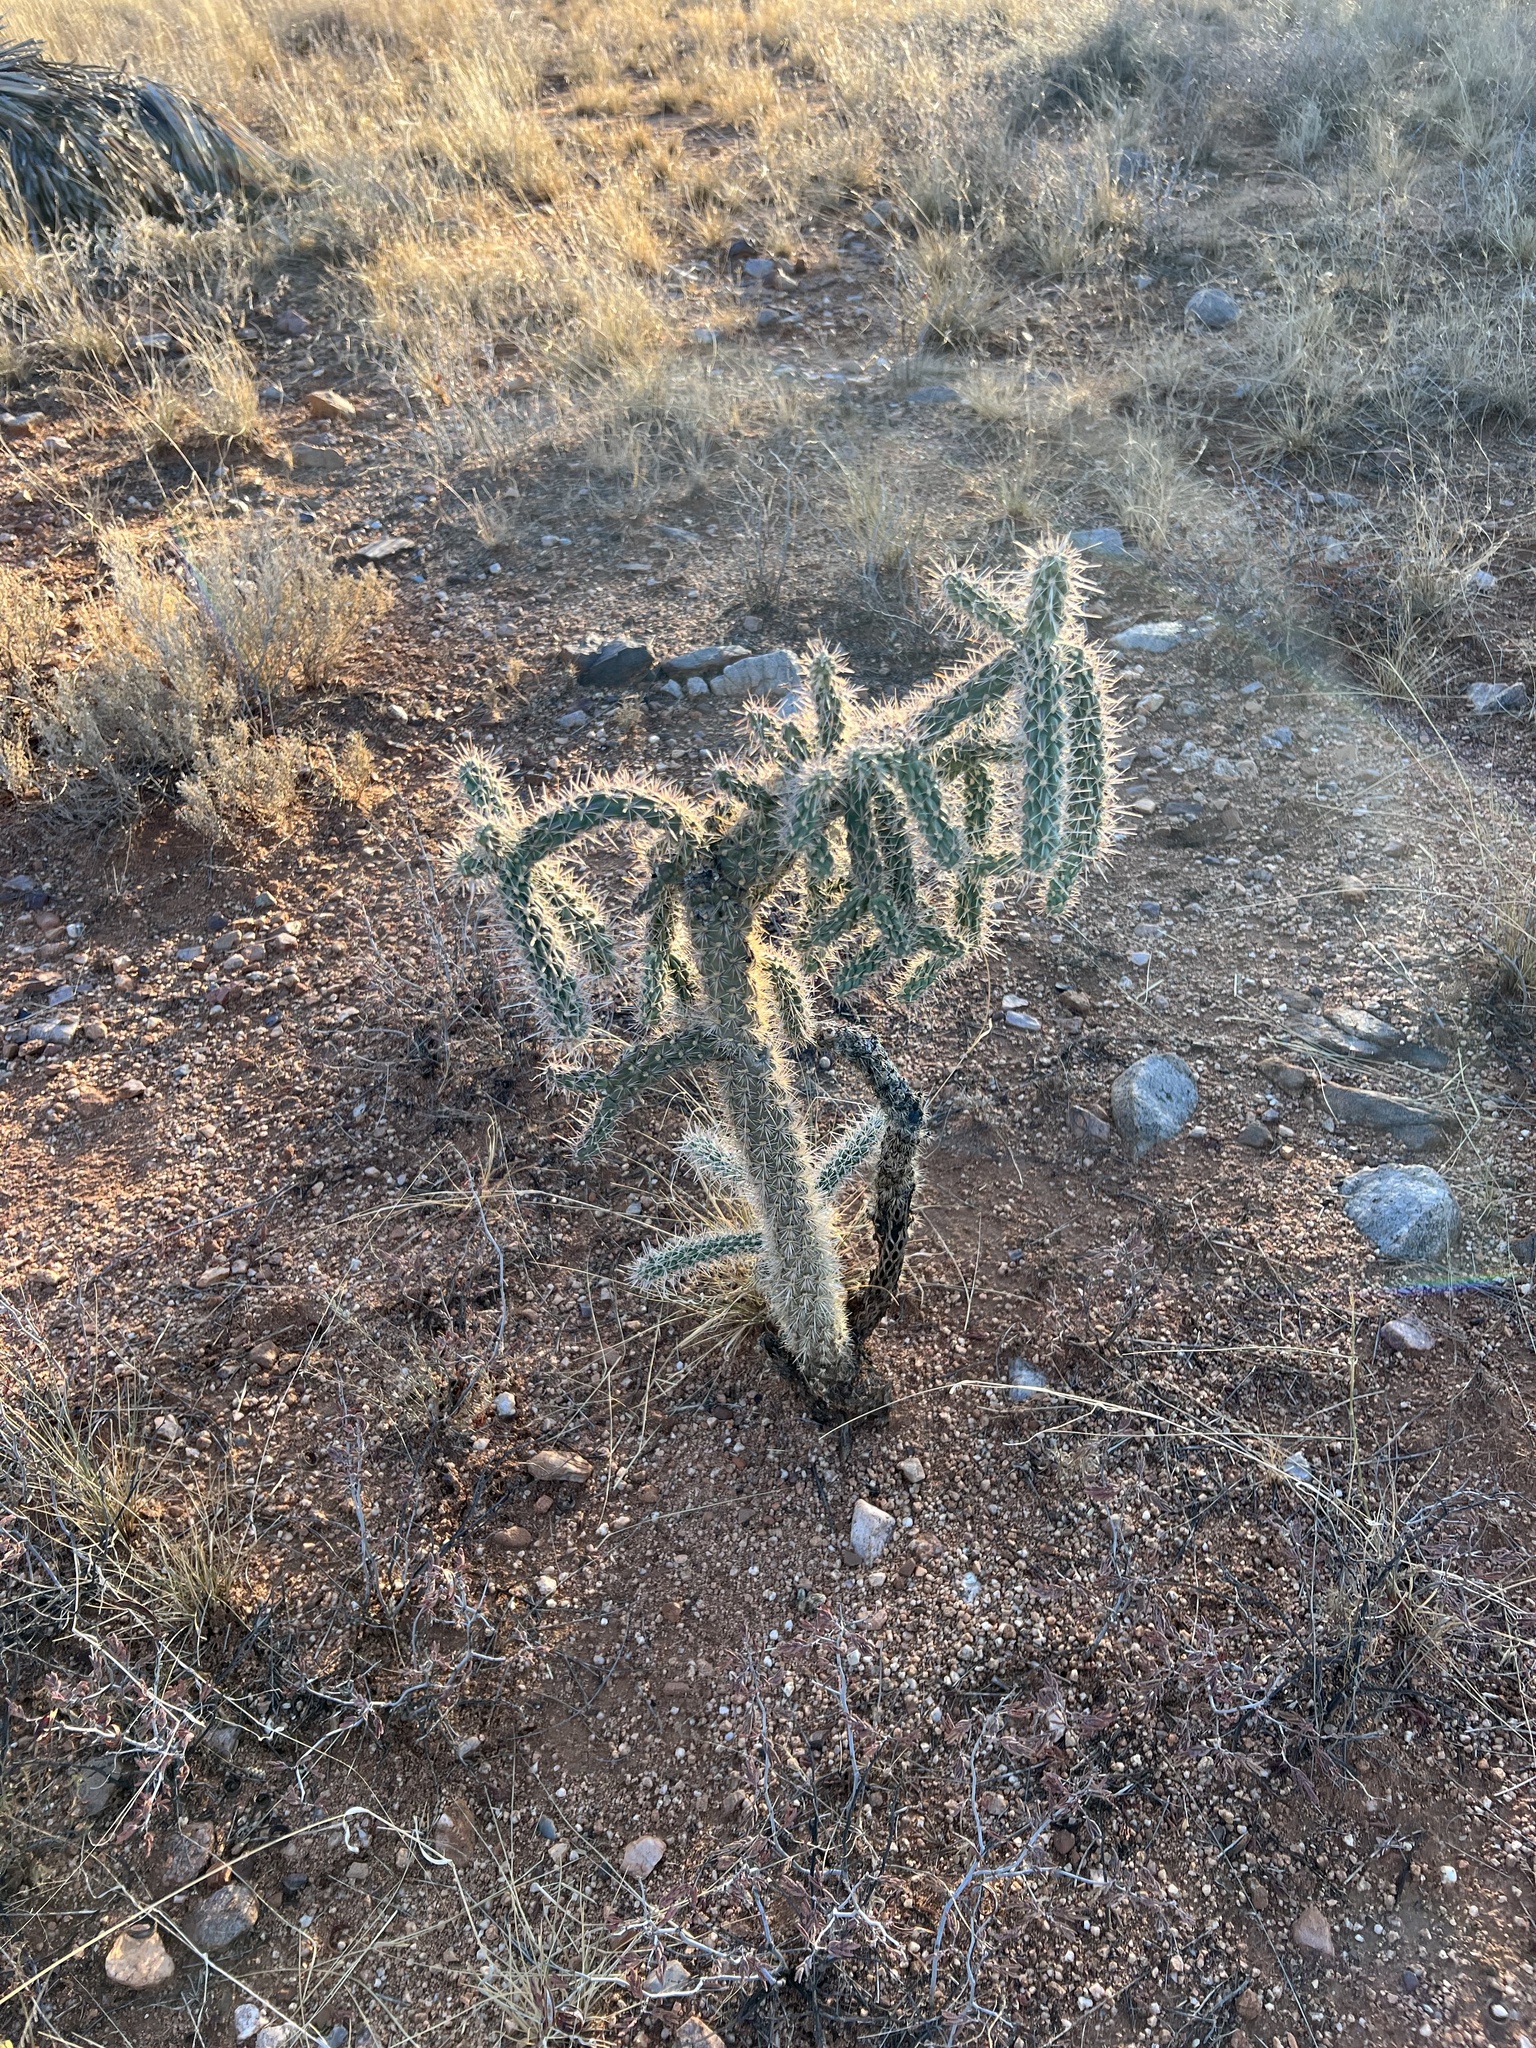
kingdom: Plantae
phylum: Tracheophyta
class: Magnoliopsida
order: Caryophyllales
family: Cactaceae
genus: Cylindropuntia
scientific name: Cylindropuntia imbricata
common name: Candelabrum cactus
